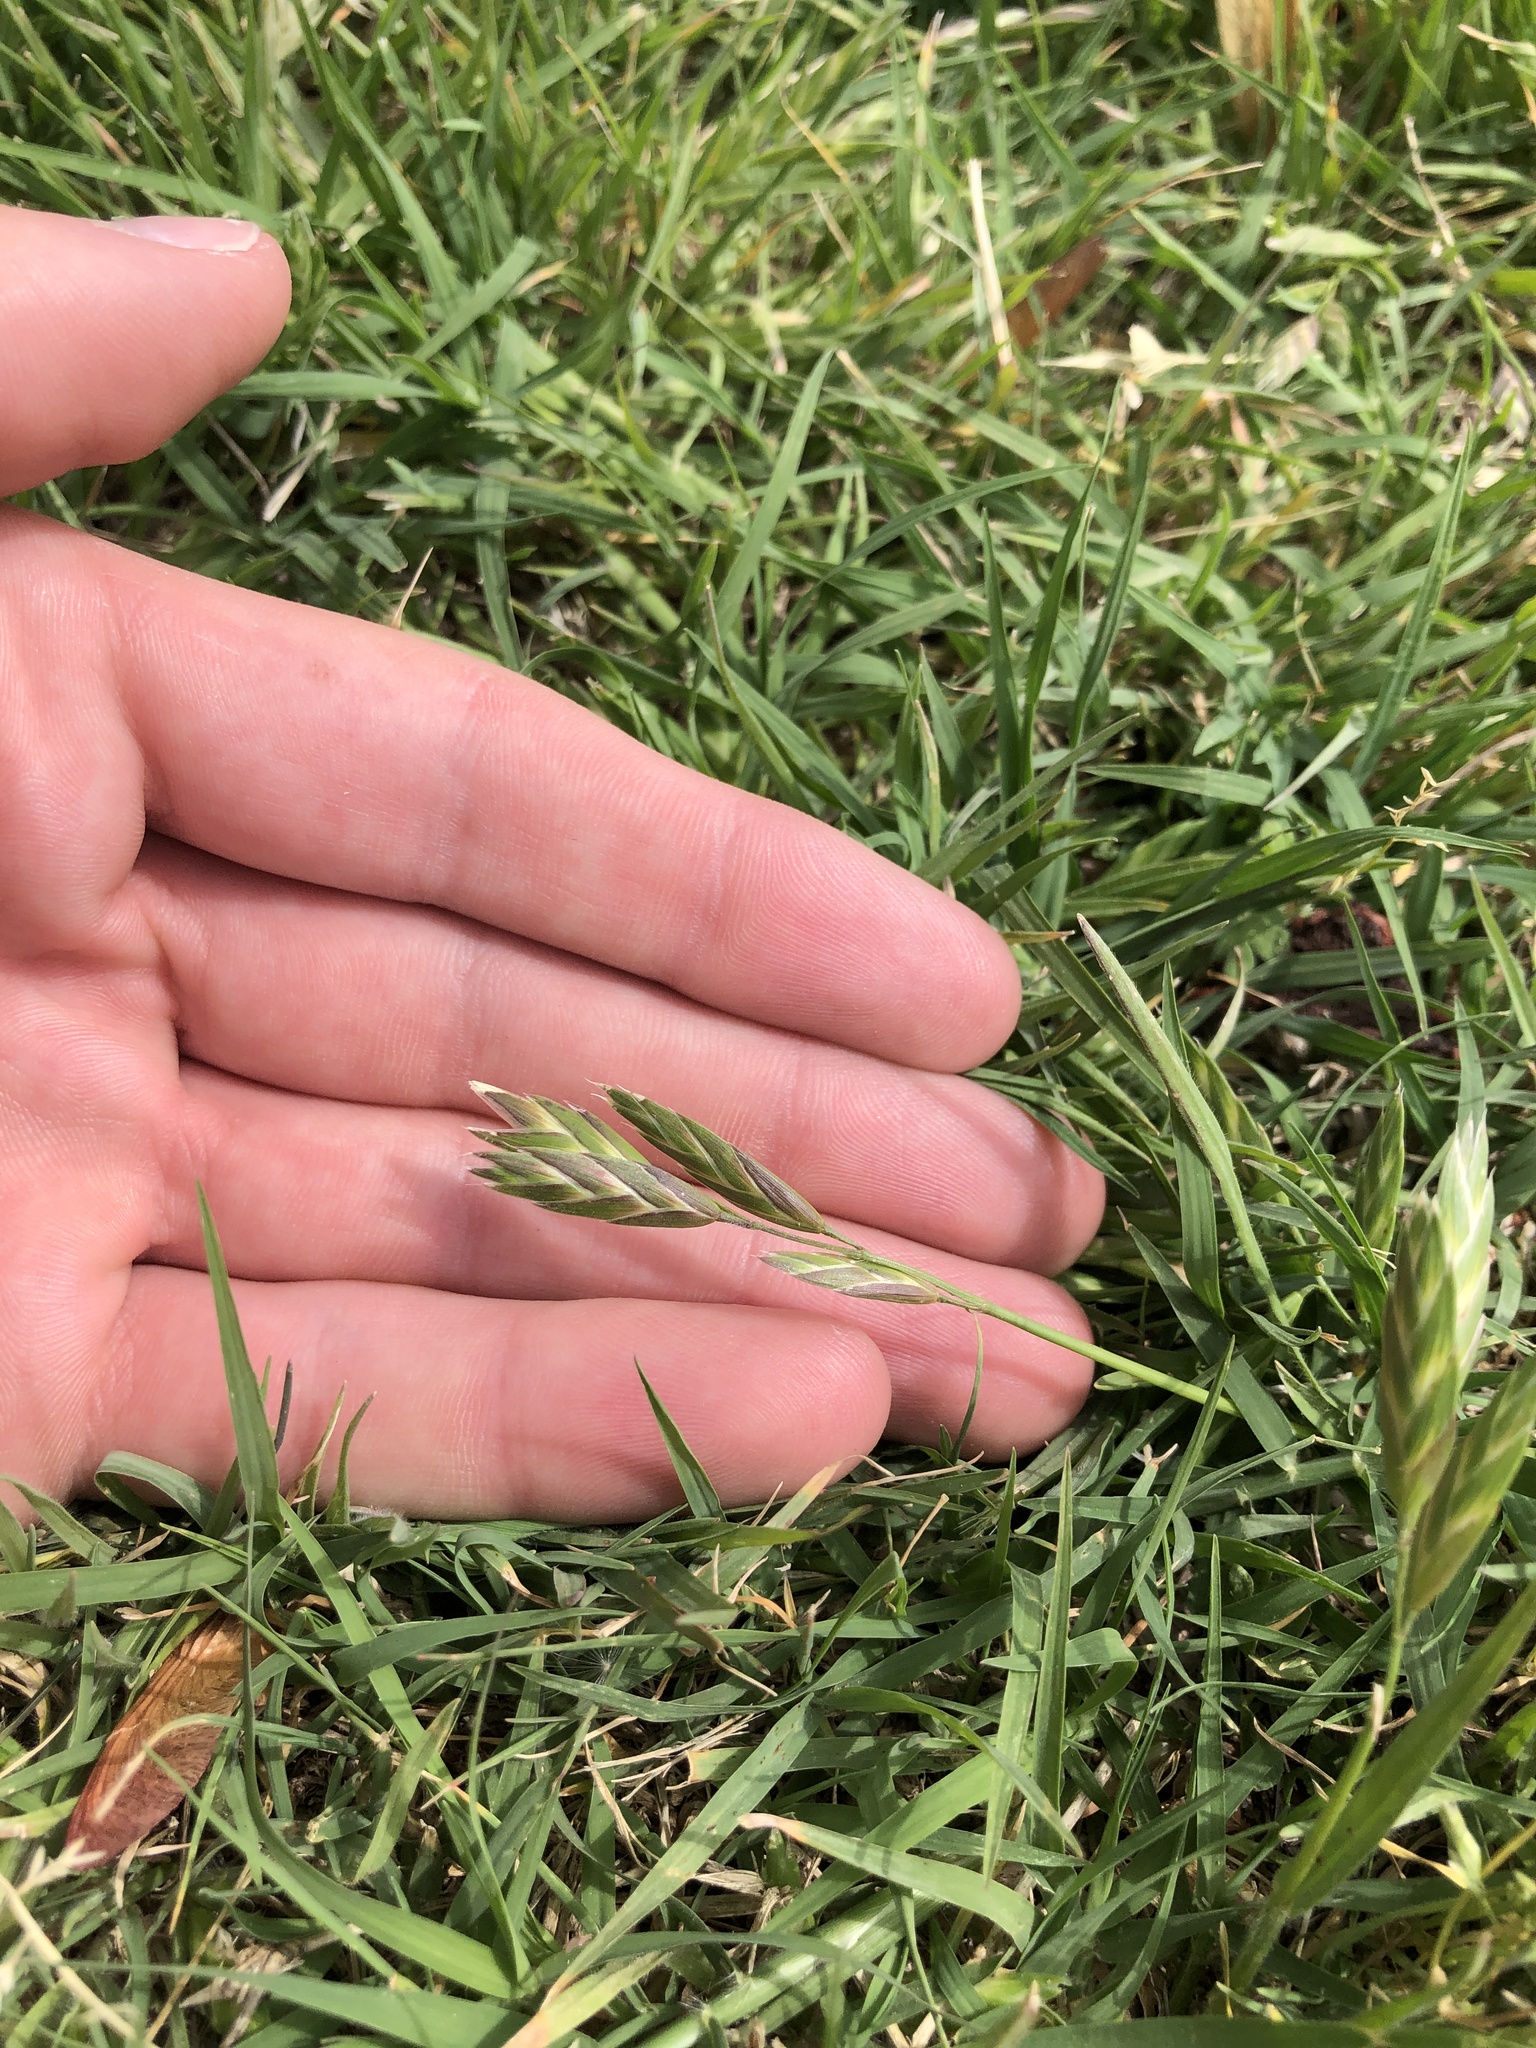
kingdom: Plantae
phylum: Tracheophyta
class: Liliopsida
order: Poales
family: Poaceae
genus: Bromus
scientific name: Bromus catharticus
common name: Rescuegrass
